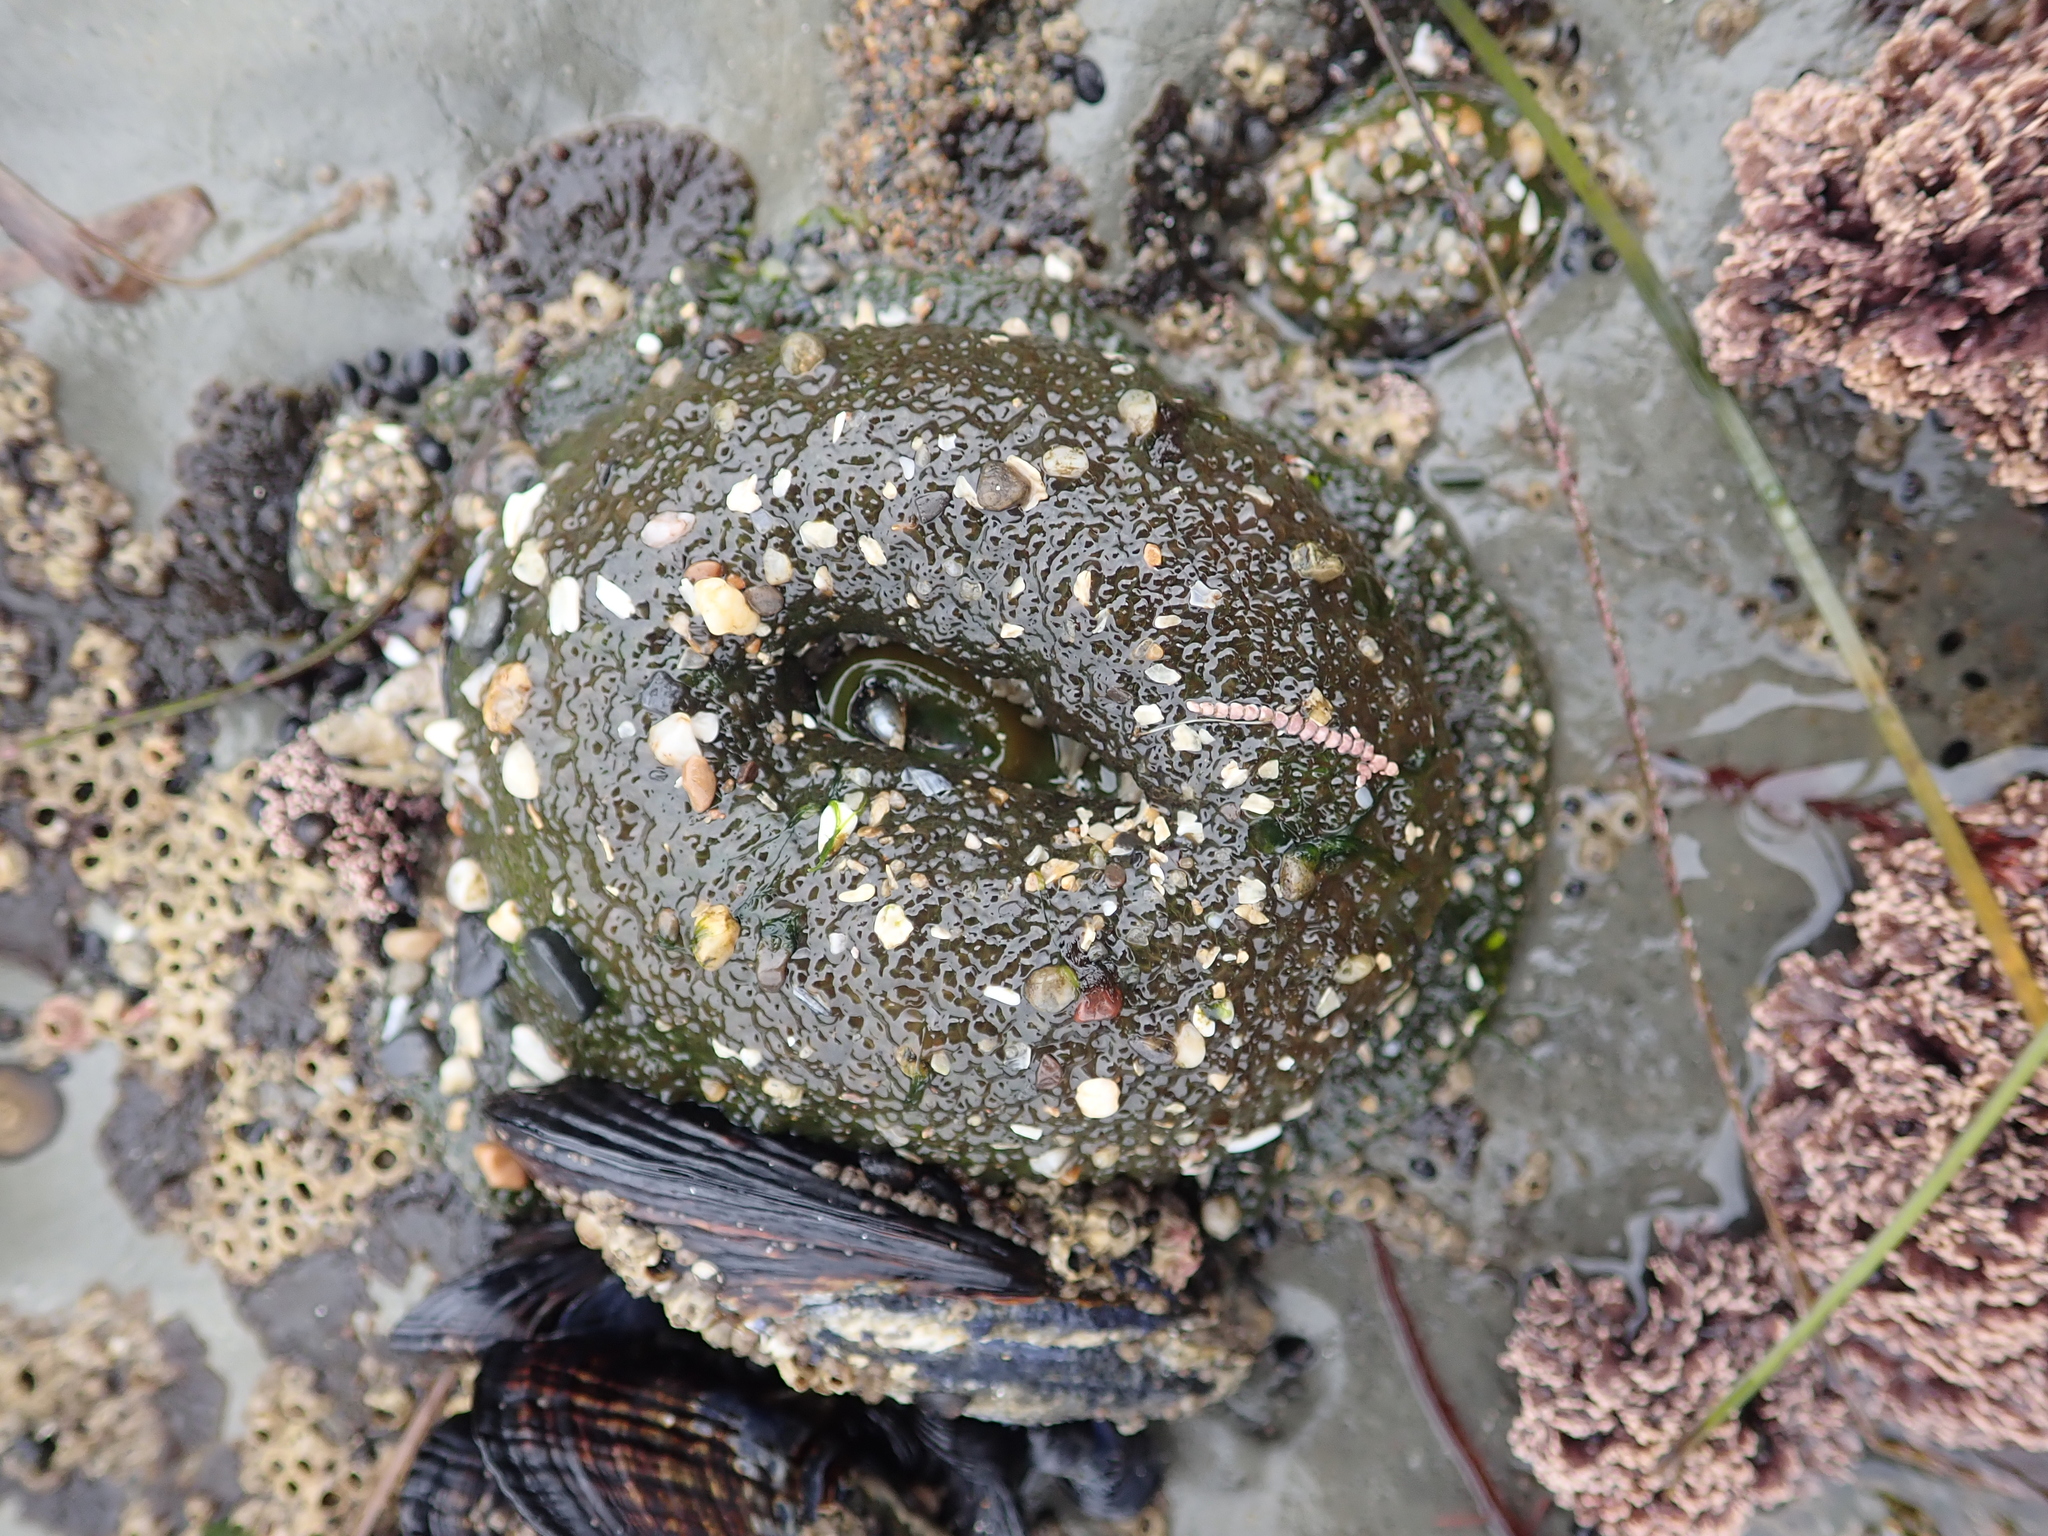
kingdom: Animalia
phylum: Cnidaria
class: Anthozoa
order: Actiniaria
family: Actiniidae
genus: Anthopleura
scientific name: Anthopleura xanthogrammica
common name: Giant green anemone
